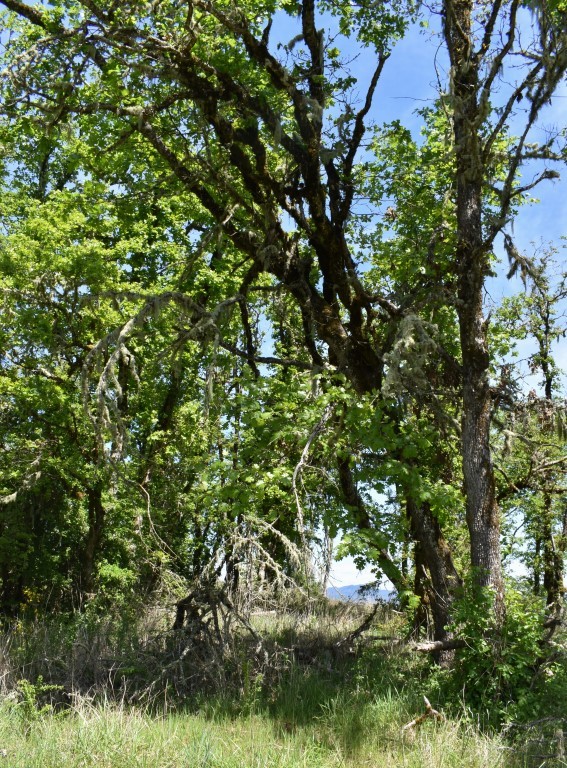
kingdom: Plantae
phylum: Tracheophyta
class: Magnoliopsida
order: Fagales
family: Fagaceae
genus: Quercus
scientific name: Quercus kelloggii
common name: California black oak
